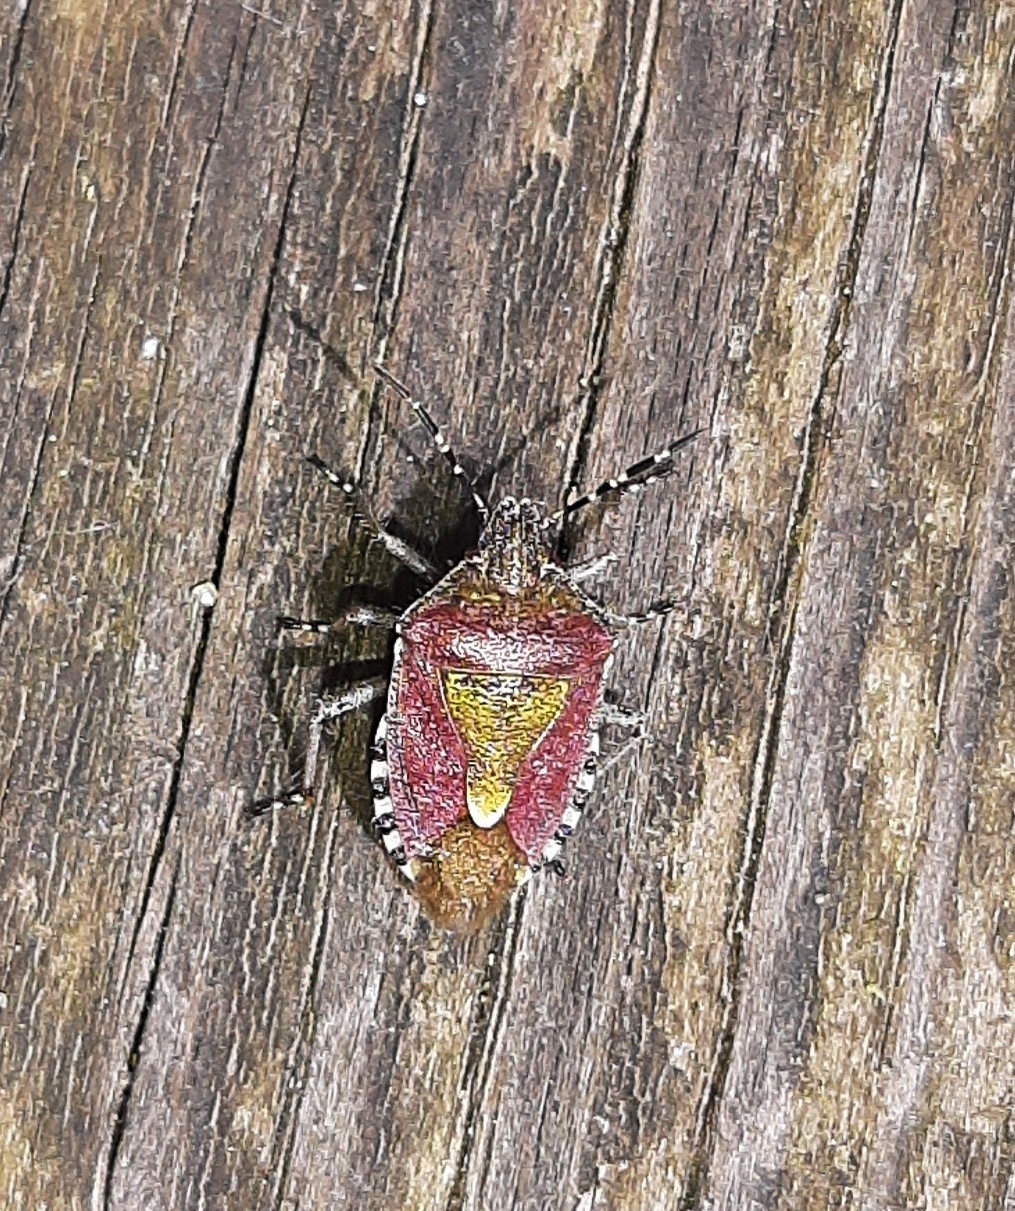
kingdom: Animalia
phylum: Arthropoda
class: Insecta
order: Hemiptera
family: Pentatomidae
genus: Dolycoris
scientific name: Dolycoris baccarum
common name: Sloe bug
